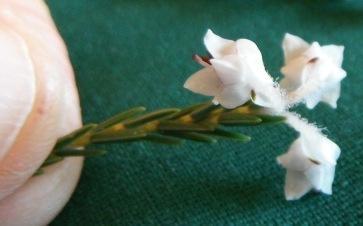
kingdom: Plantae
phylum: Tracheophyta
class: Magnoliopsida
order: Ericales
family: Ericaceae
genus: Erica
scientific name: Erica calycina
